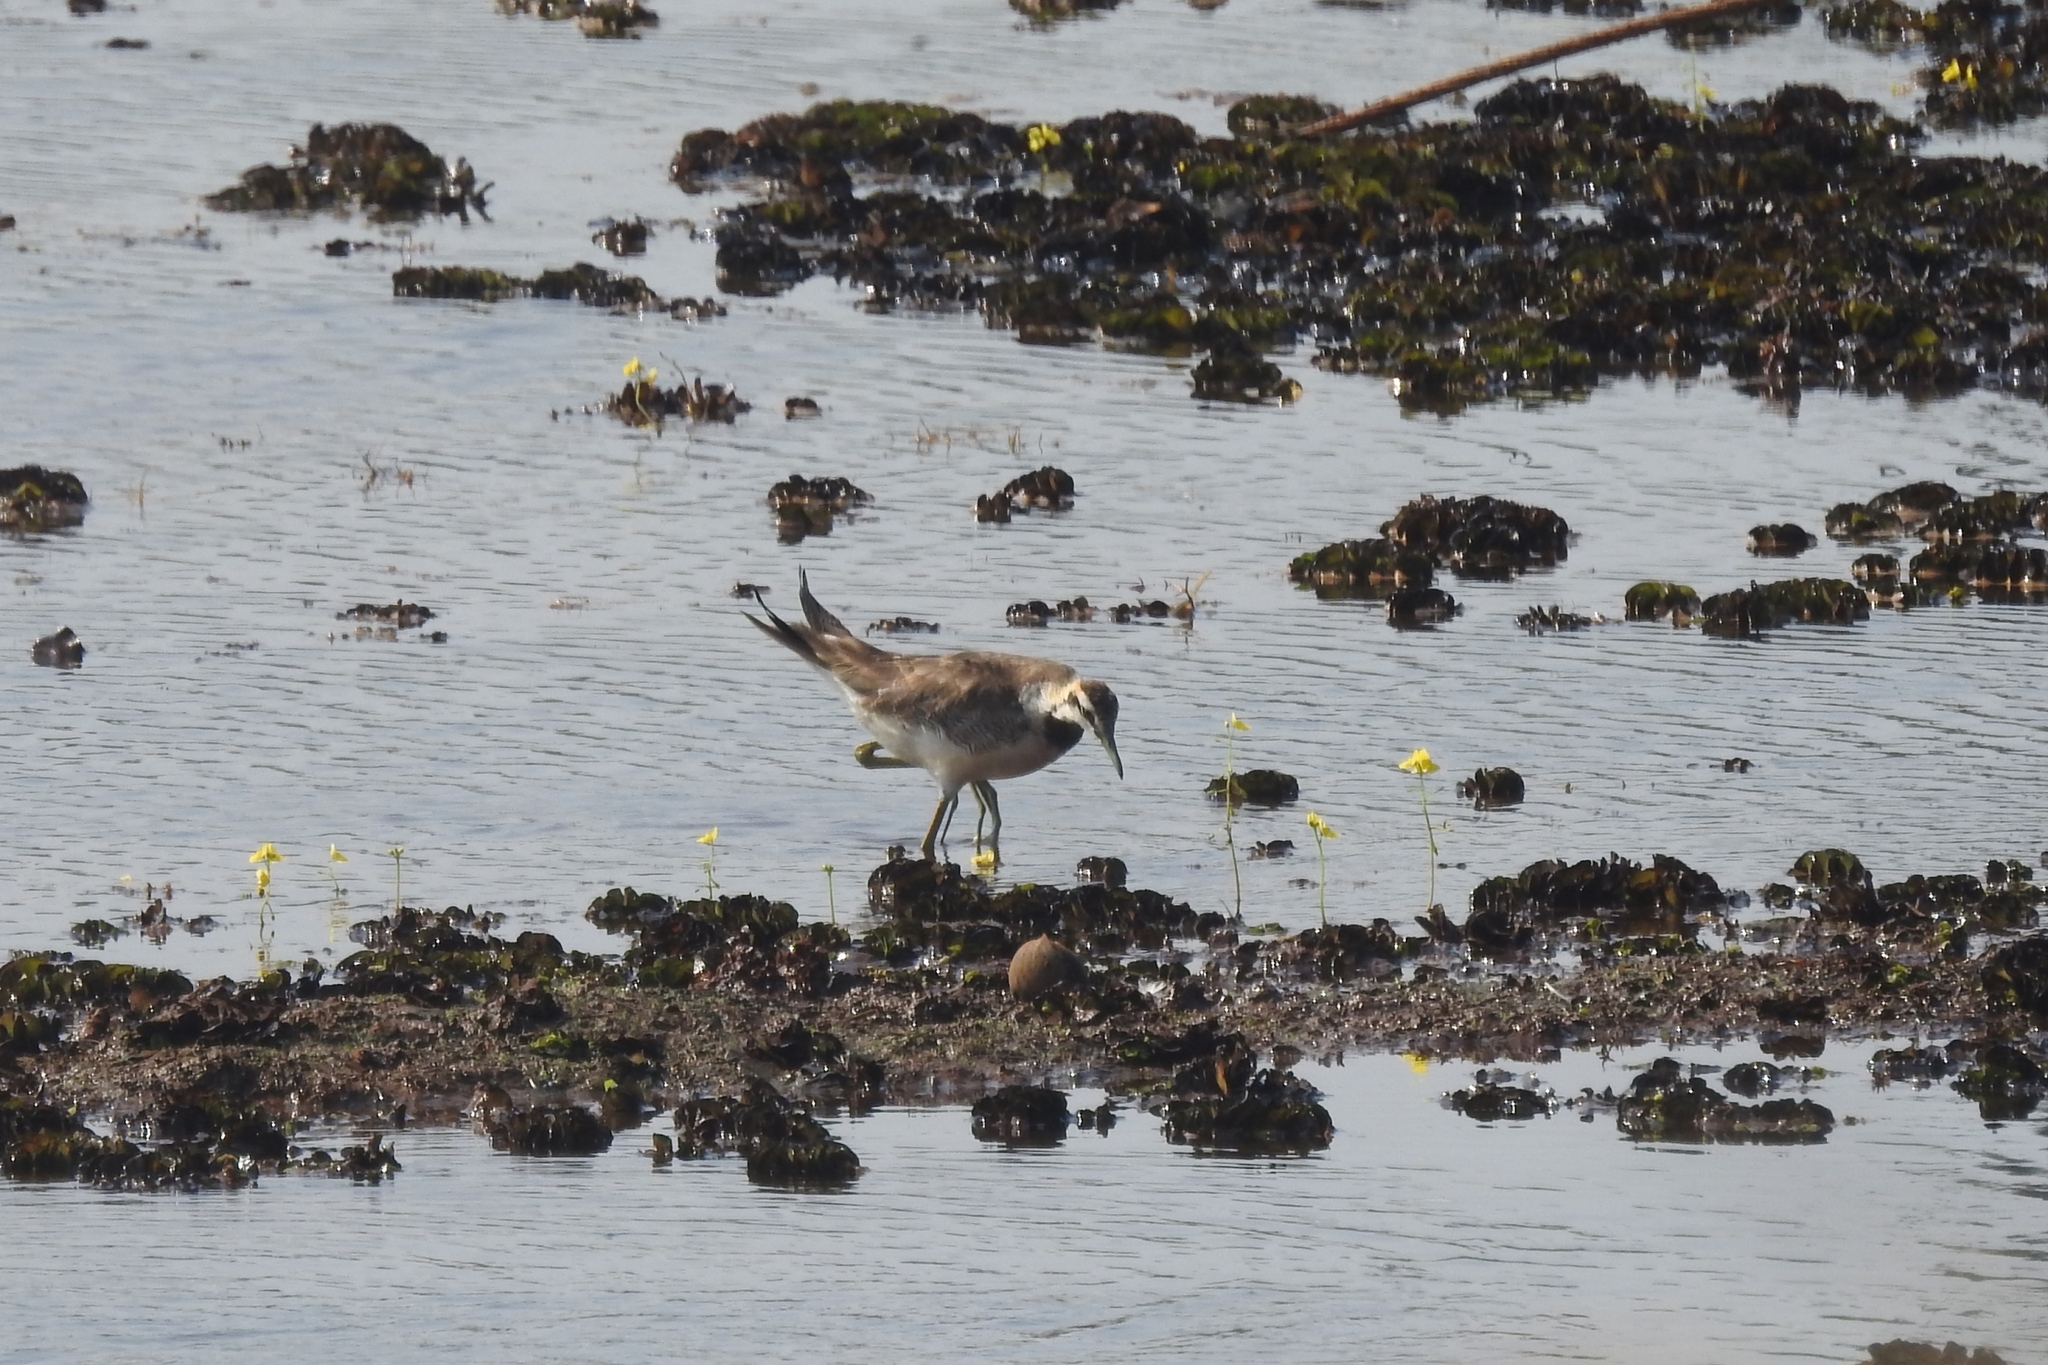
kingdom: Animalia
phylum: Chordata
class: Aves
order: Charadriiformes
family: Jacanidae
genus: Hydrophasianus
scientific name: Hydrophasianus chirurgus
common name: Pheasant-tailed jacana
